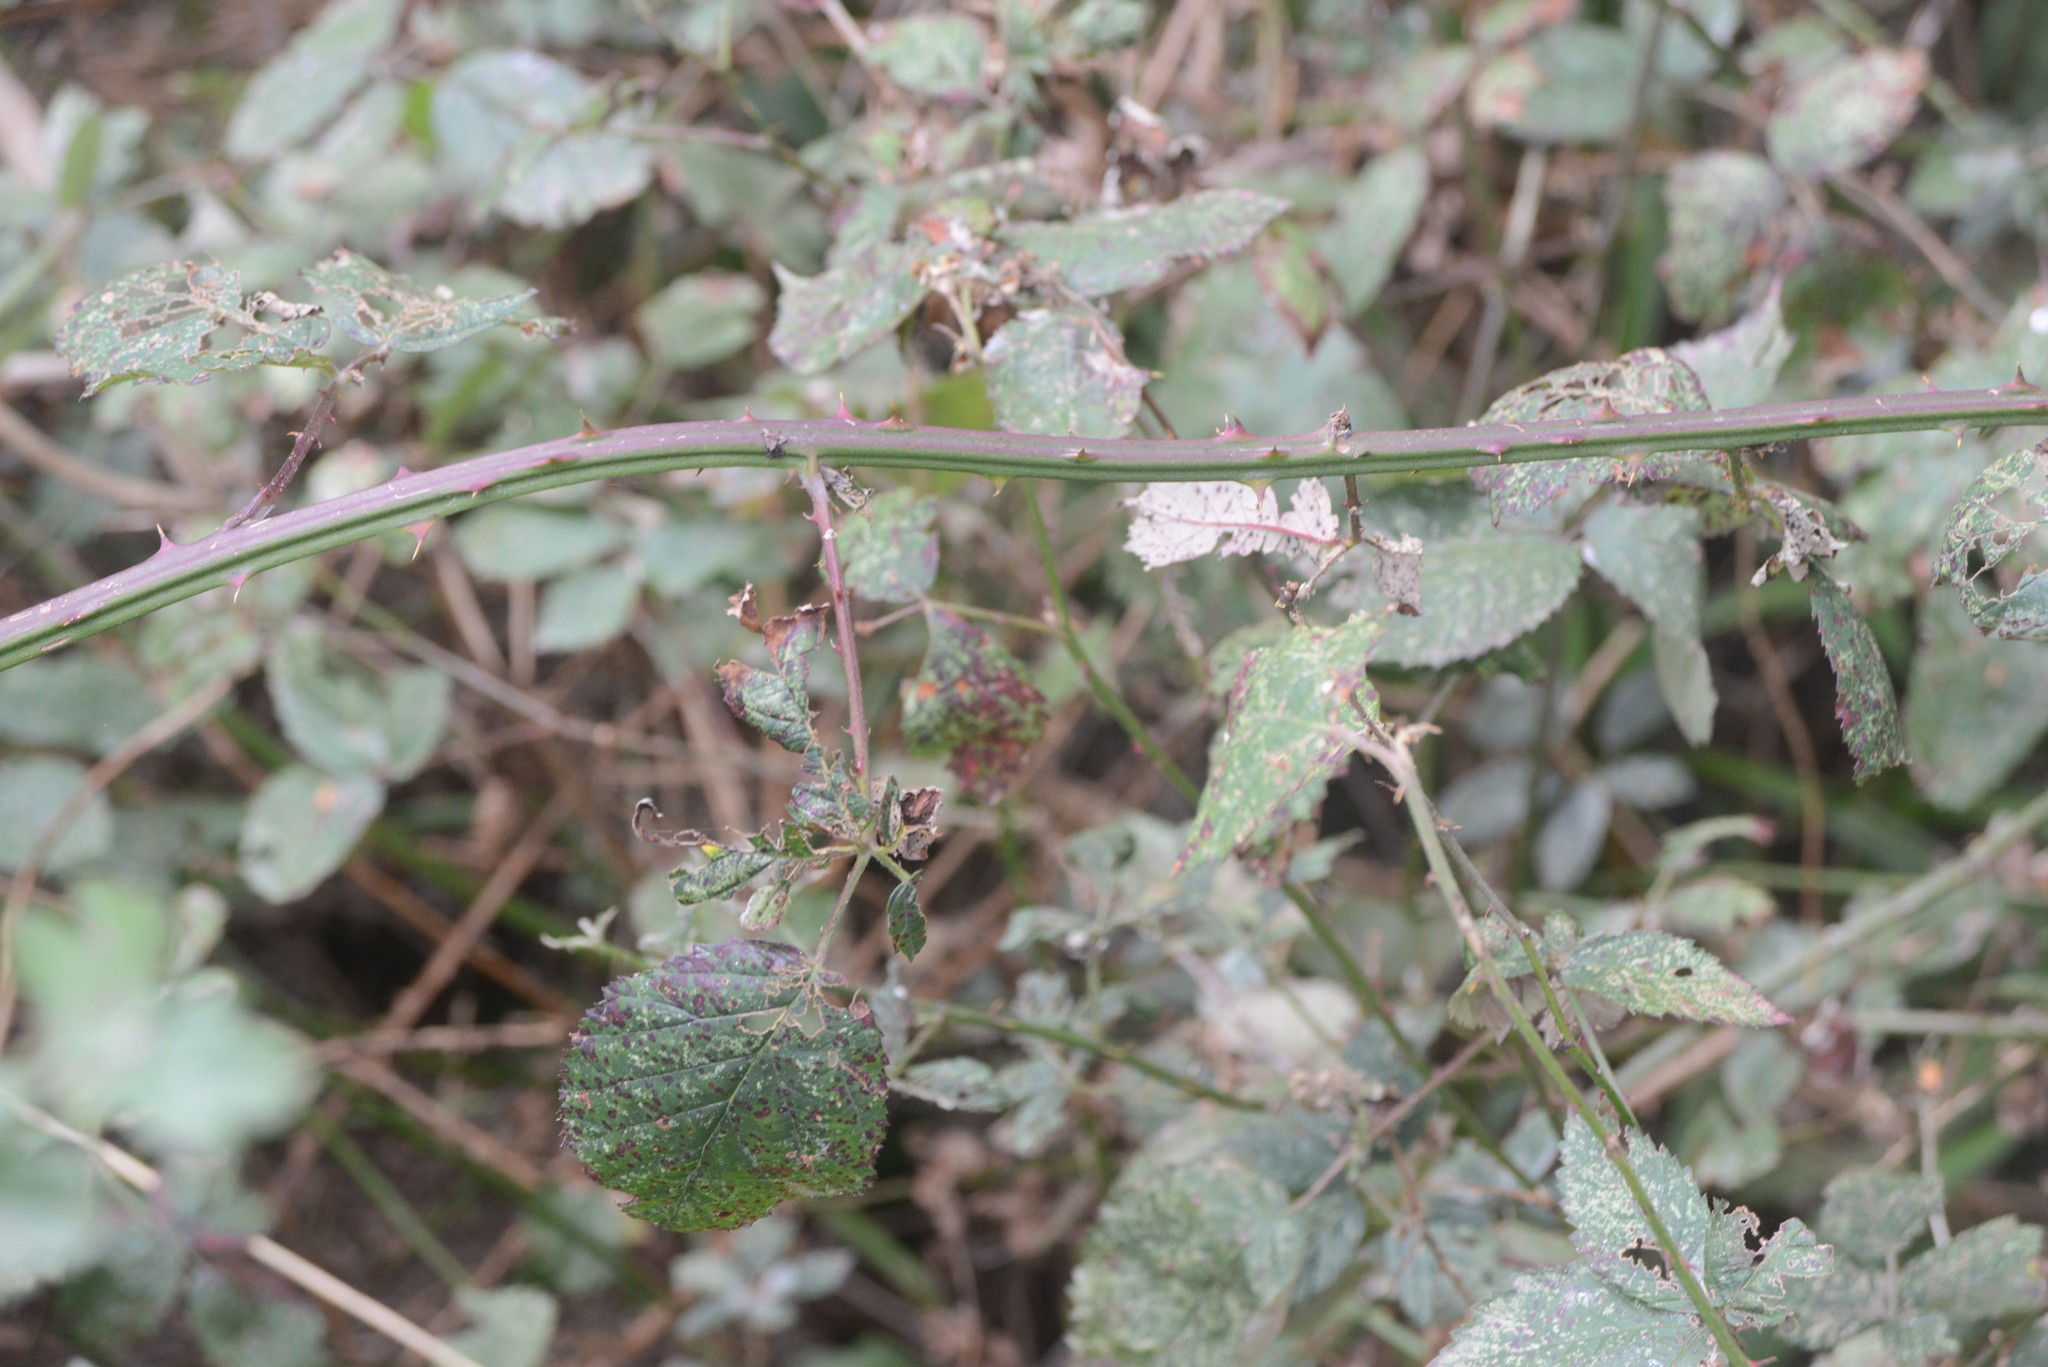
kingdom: Plantae
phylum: Tracheophyta
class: Magnoliopsida
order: Rosales
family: Rosaceae
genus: Rubus
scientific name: Rubus
